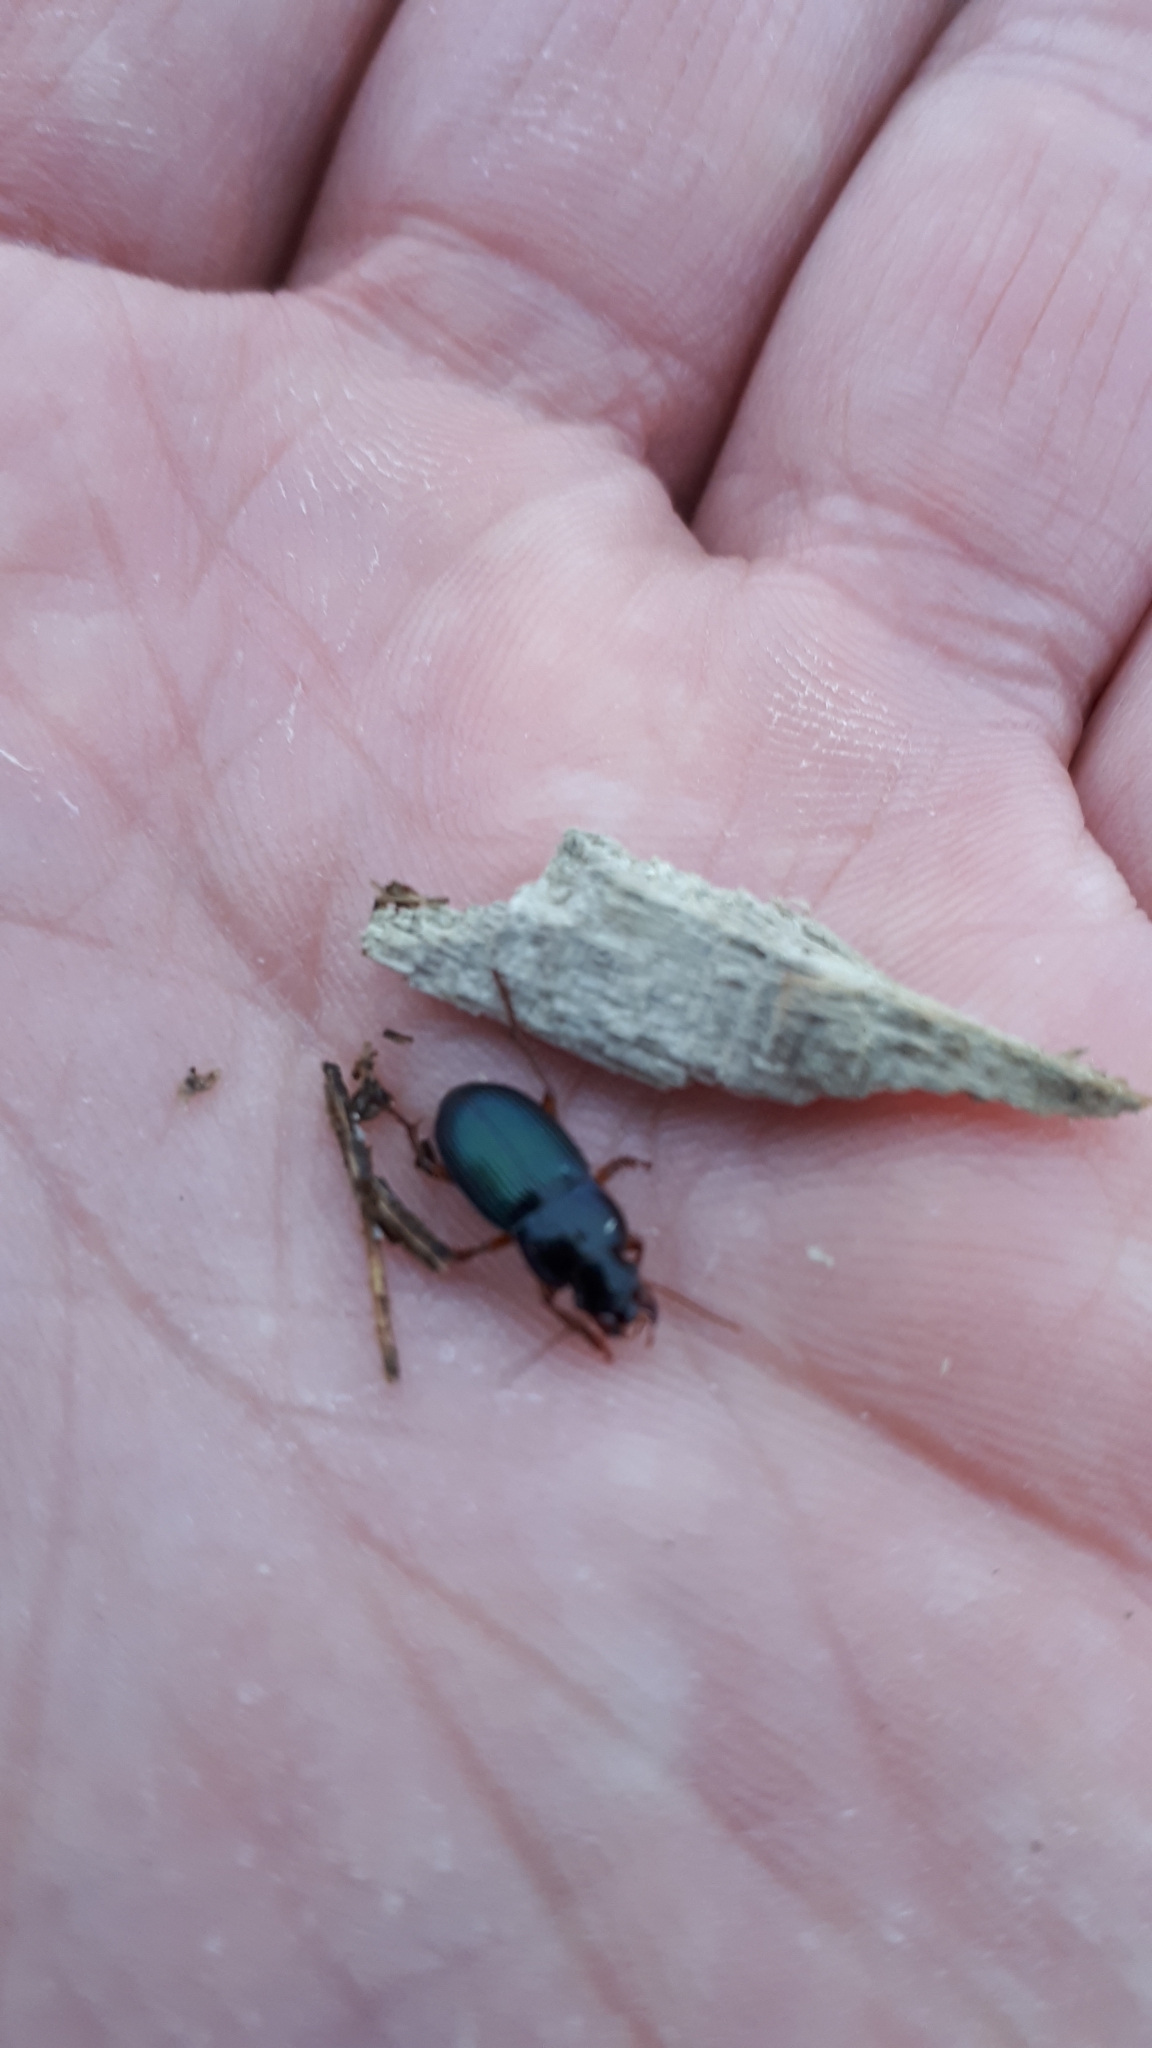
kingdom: Animalia
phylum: Arthropoda
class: Insecta
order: Coleoptera
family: Carabidae
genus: Harpalus
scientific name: Harpalus rubripes
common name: Red-legged harp ground beetle
